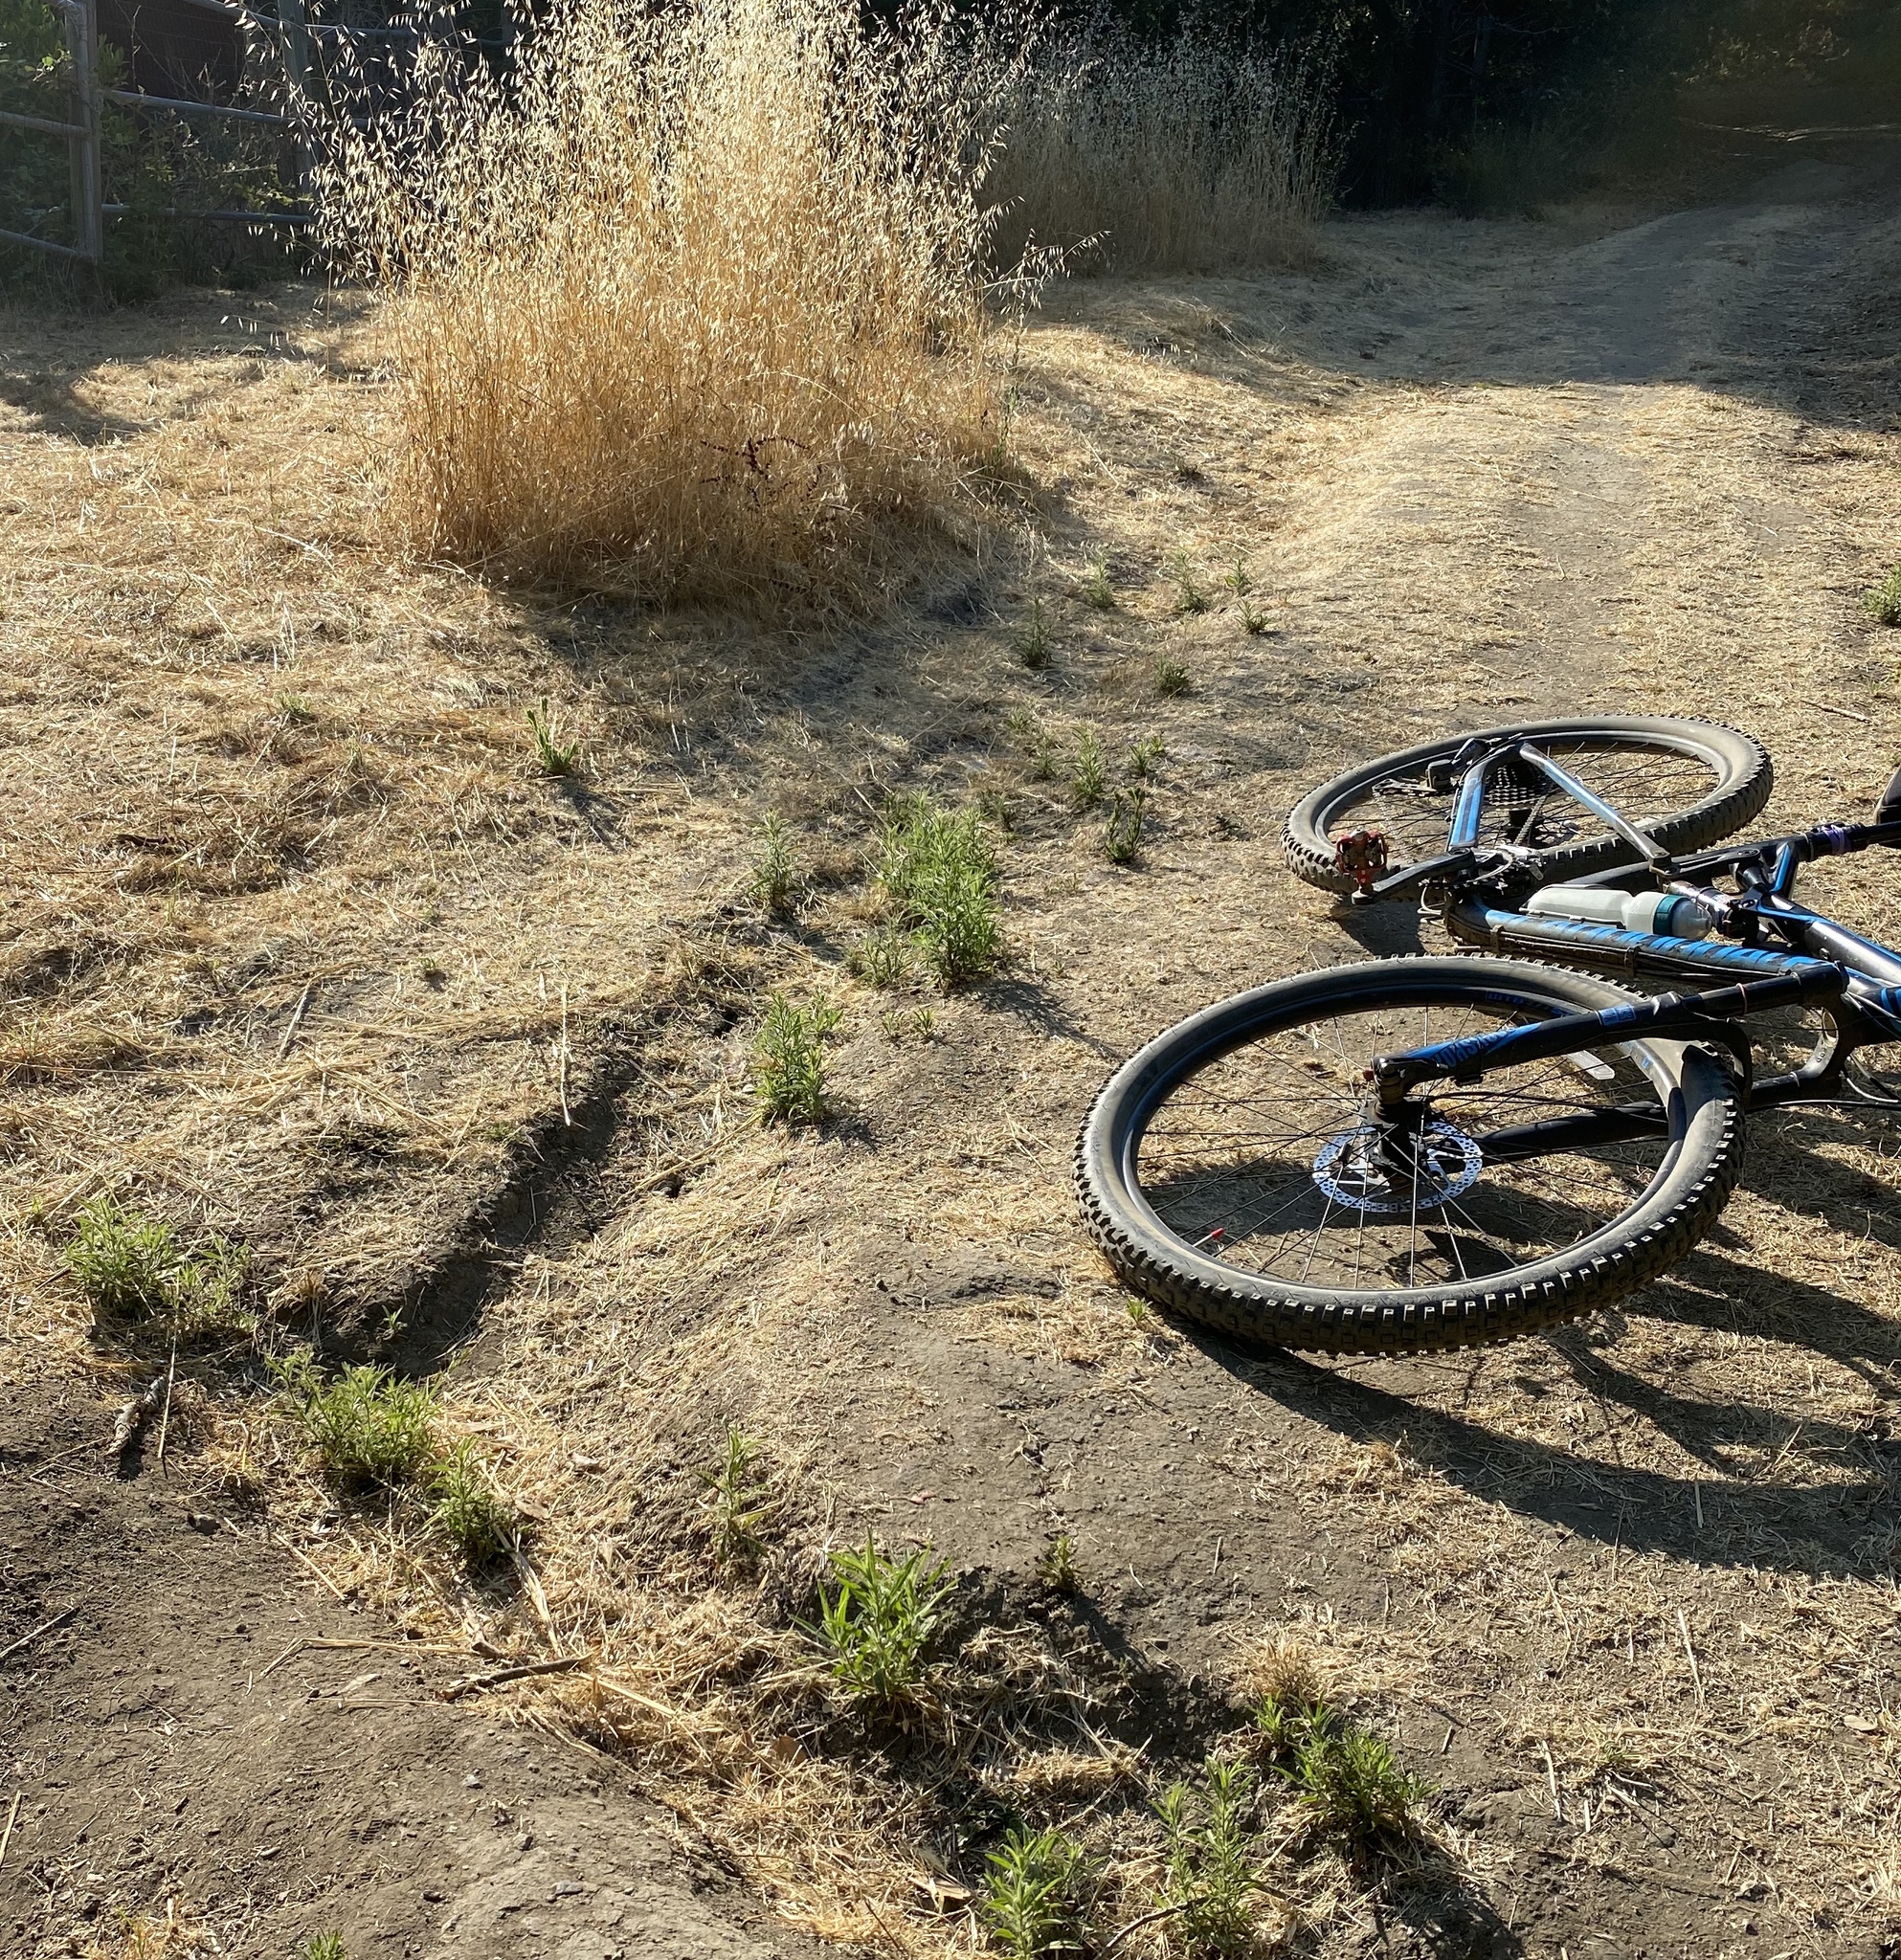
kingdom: Plantae
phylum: Tracheophyta
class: Magnoliopsida
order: Asterales
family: Asteraceae
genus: Dittrichia
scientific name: Dittrichia graveolens
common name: Stinking fleabane
